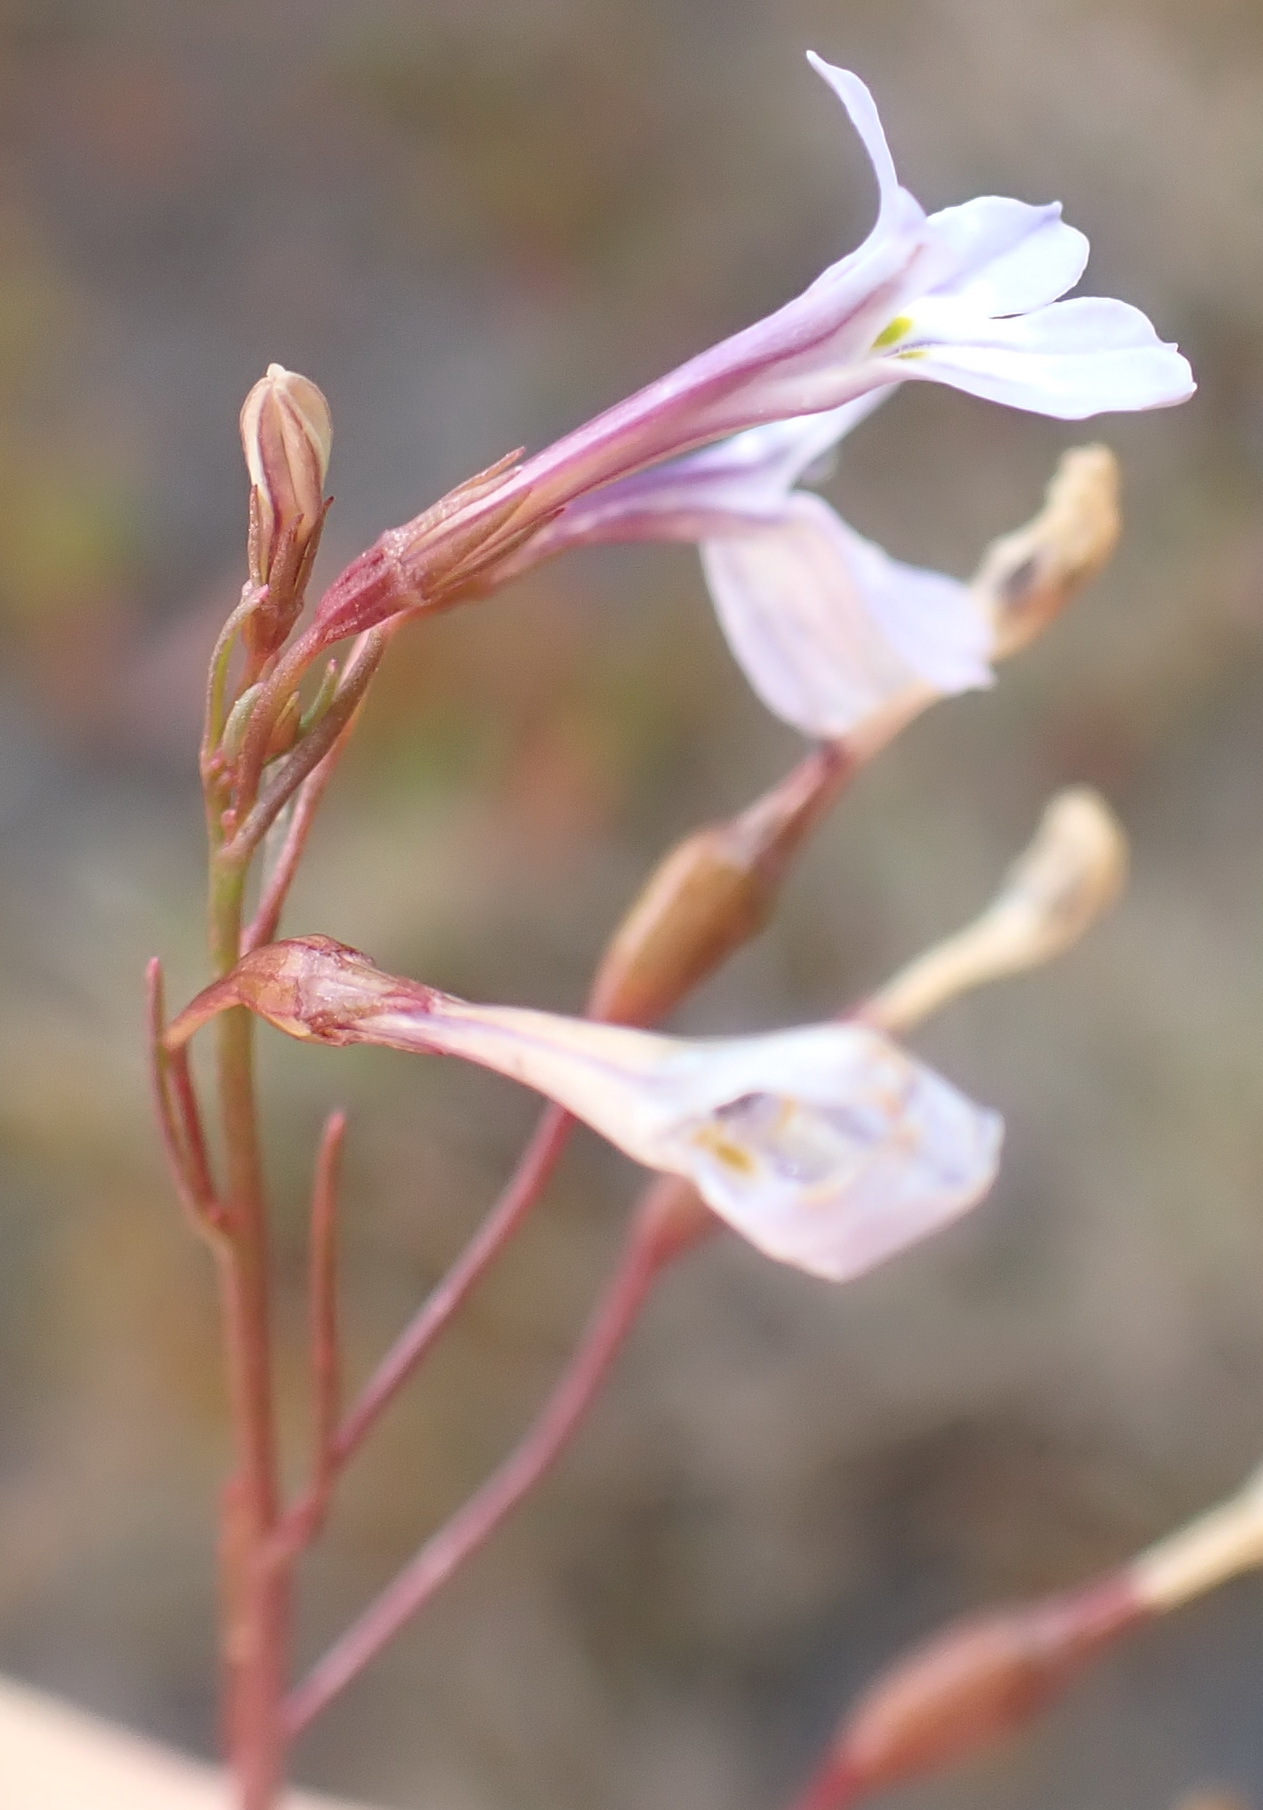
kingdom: Plantae
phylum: Tracheophyta
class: Magnoliopsida
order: Asterales
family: Campanulaceae
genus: Wimmerella
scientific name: Wimmerella arabidea
